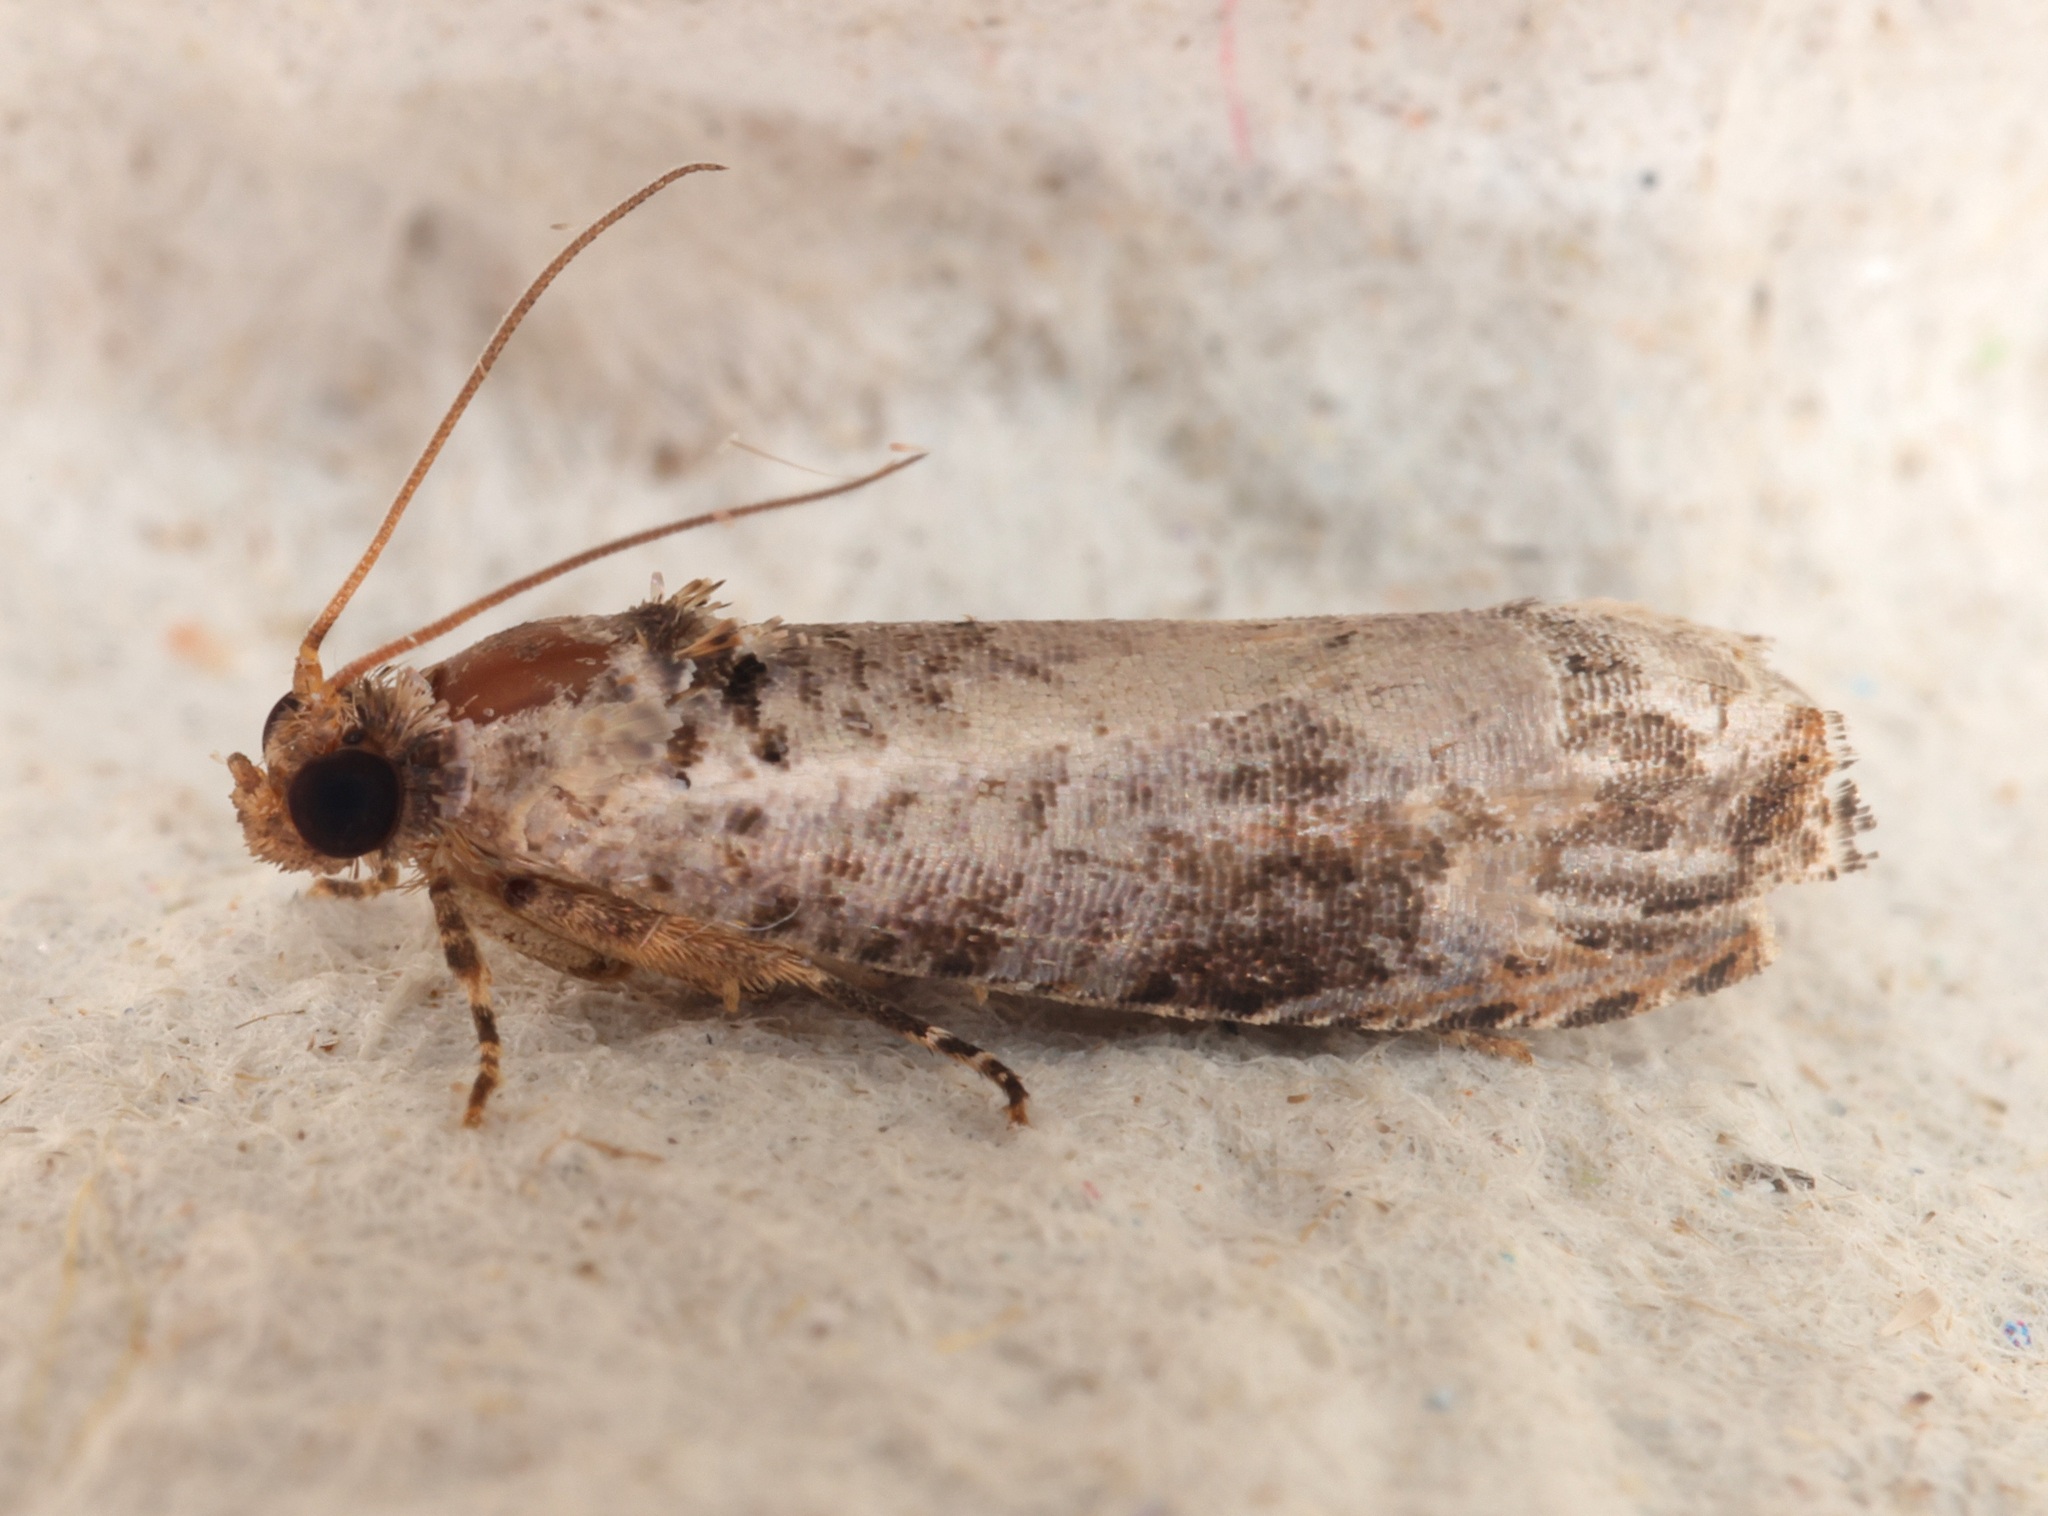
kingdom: Animalia
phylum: Arthropoda
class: Insecta
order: Lepidoptera
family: Tortricidae
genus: Dudua
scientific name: Dudua aprobola
